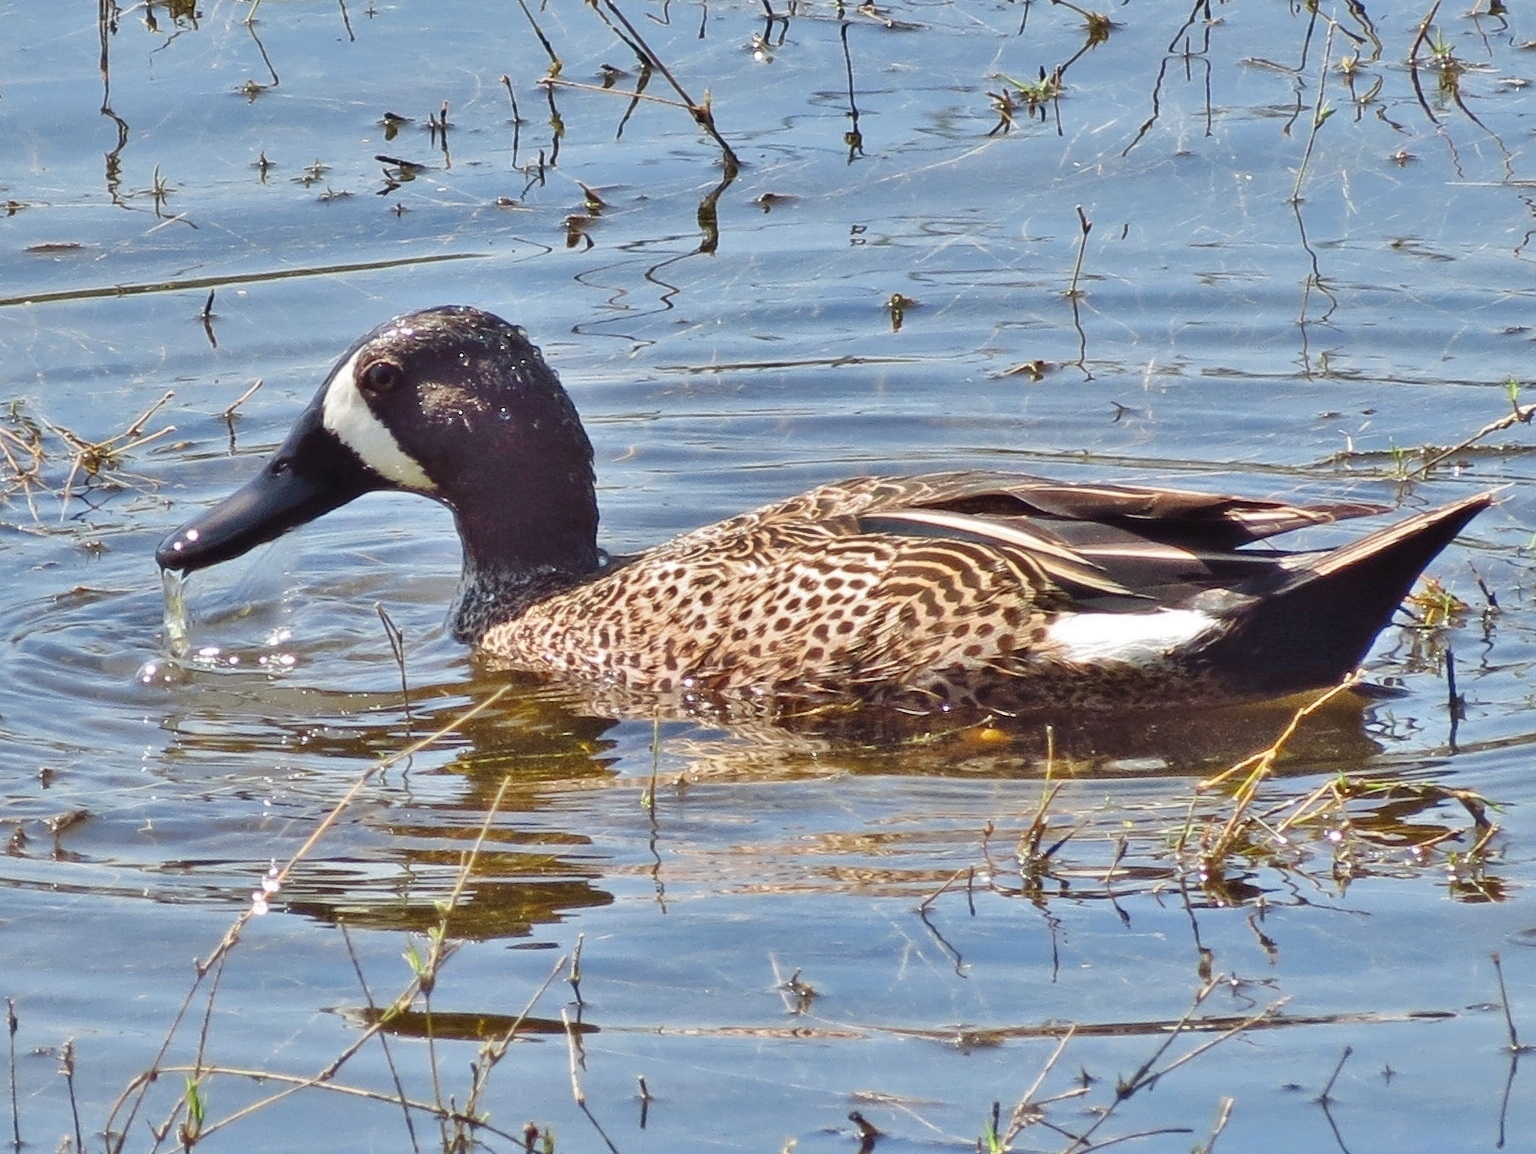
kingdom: Animalia
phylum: Chordata
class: Aves
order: Anseriformes
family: Anatidae
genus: Spatula
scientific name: Spatula discors
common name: Blue-winged teal
